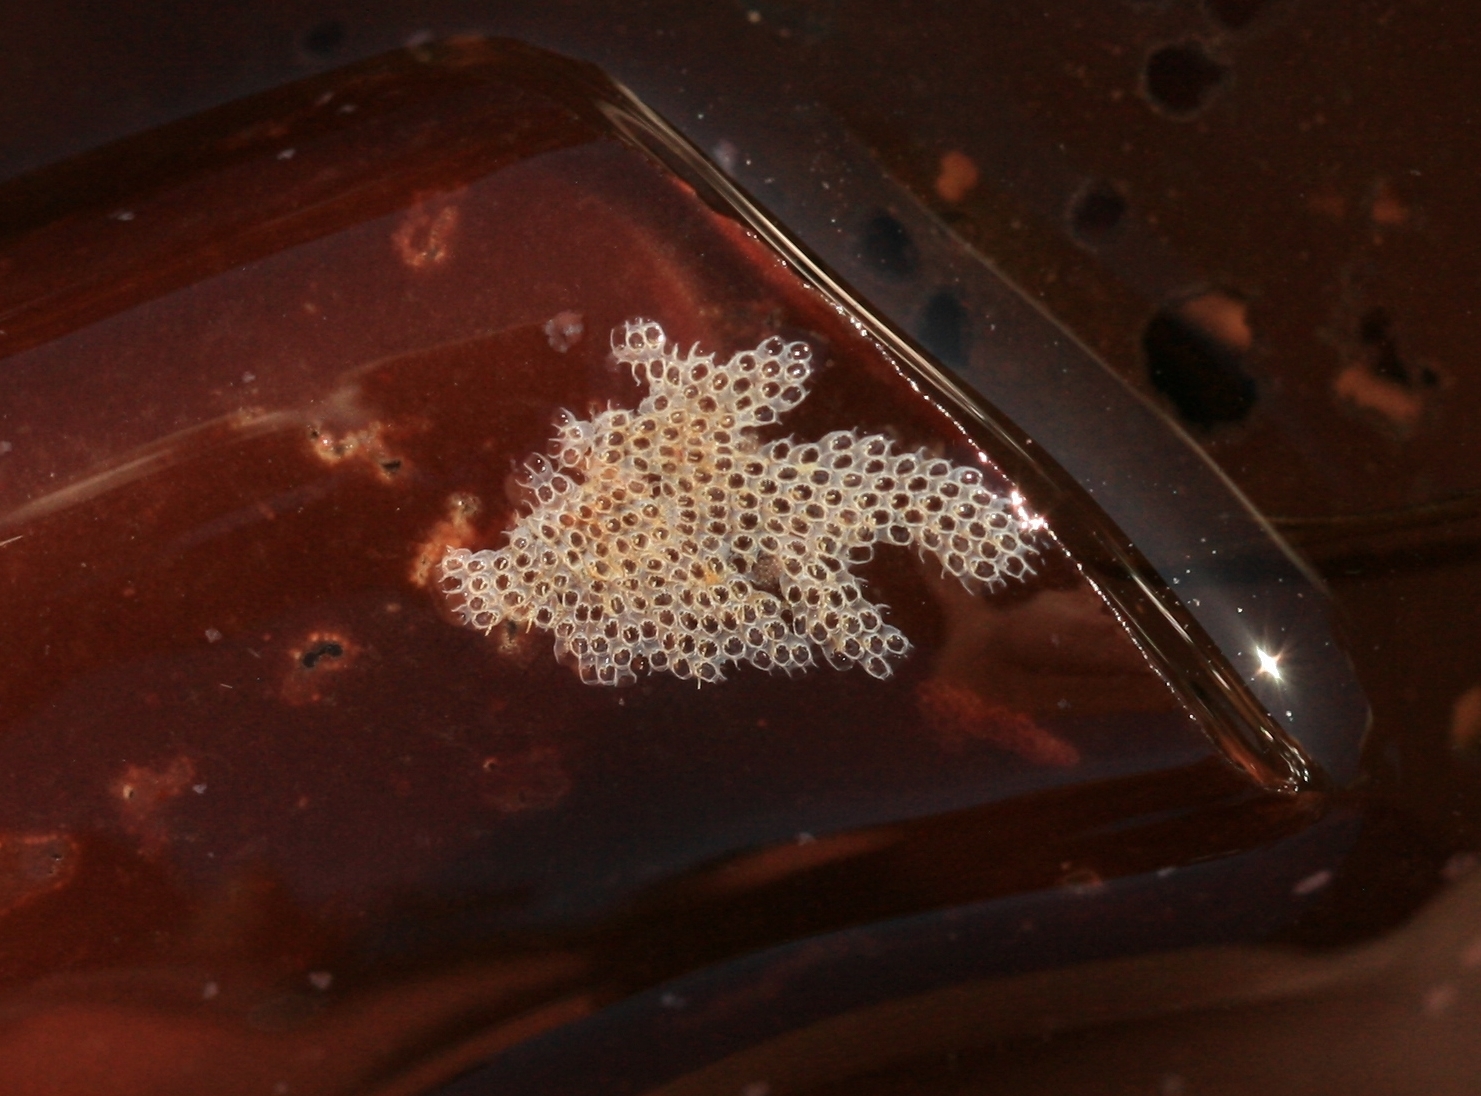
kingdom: Animalia
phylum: Bryozoa
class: Gymnolaemata
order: Cheilostomatida
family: Electridae
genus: Electra
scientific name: Electra pilosa
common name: Hairy sea-mat
